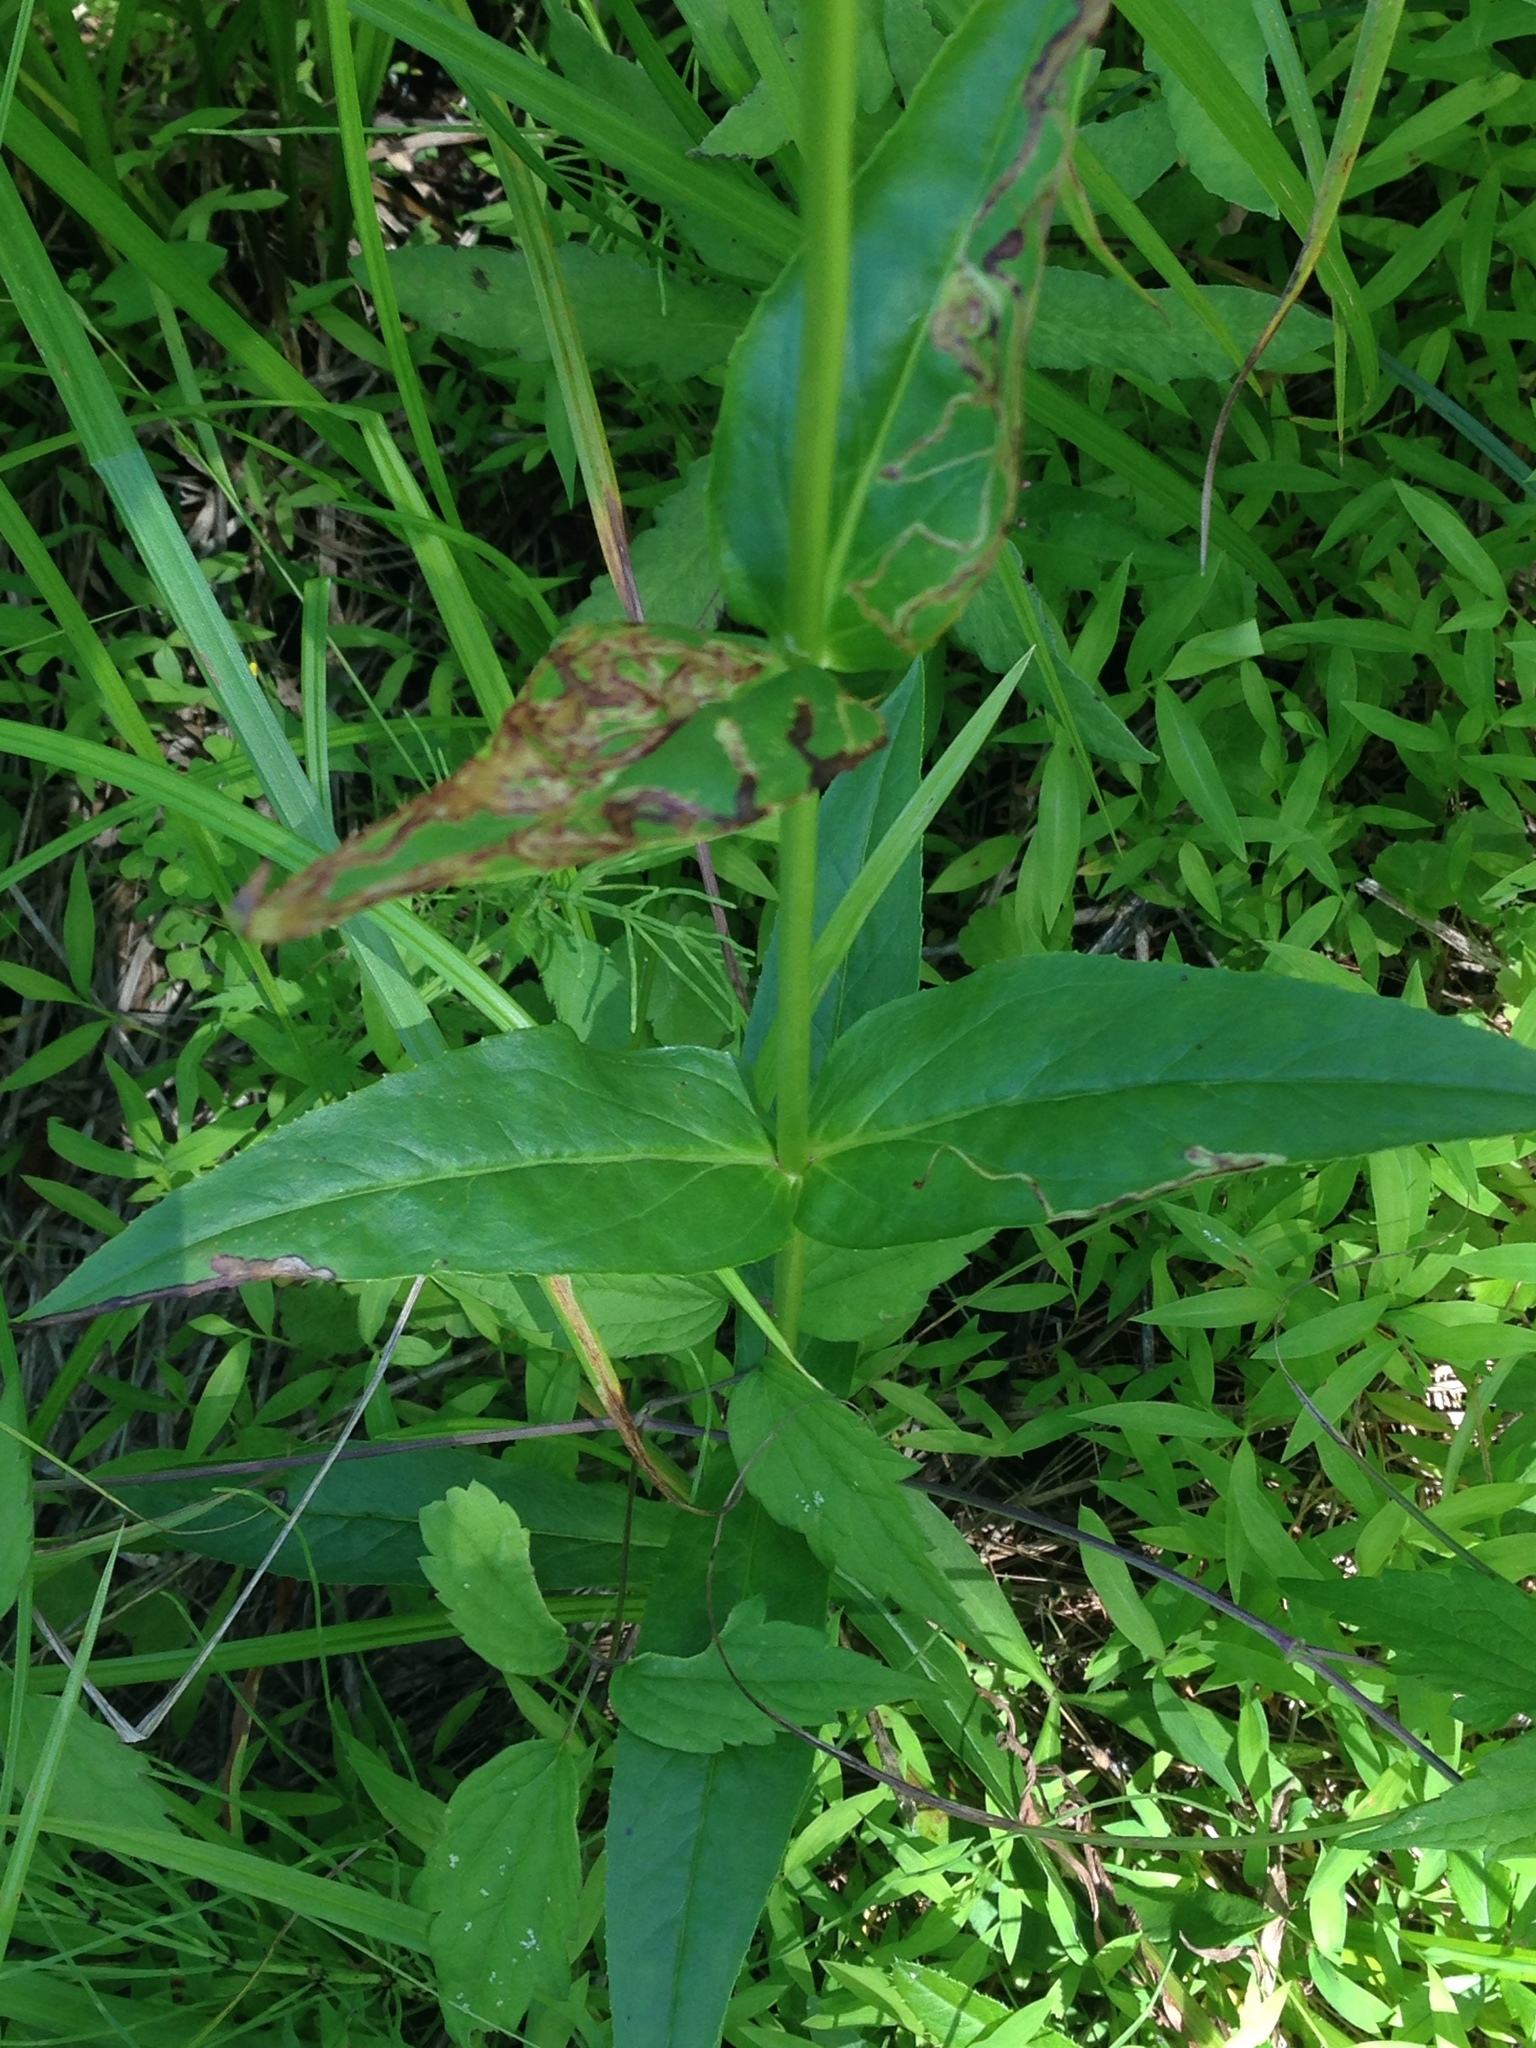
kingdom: Plantae
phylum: Tracheophyta
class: Magnoliopsida
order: Lamiales
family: Plantaginaceae
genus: Penstemon
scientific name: Penstemon digitalis
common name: Foxglove beardtongue
